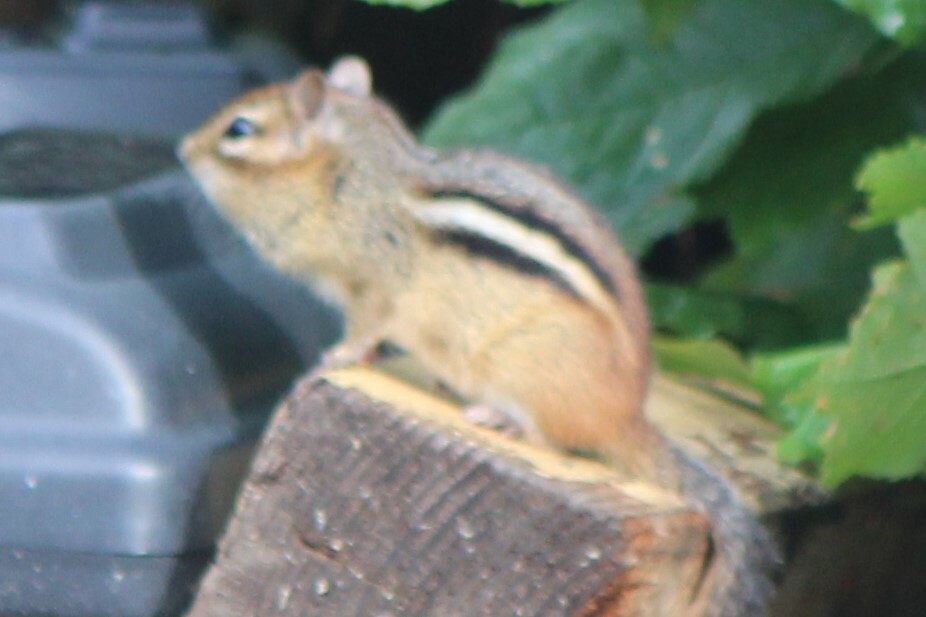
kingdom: Animalia
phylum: Chordata
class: Mammalia
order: Rodentia
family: Sciuridae
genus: Tamias
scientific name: Tamias striatus
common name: Eastern chipmunk
